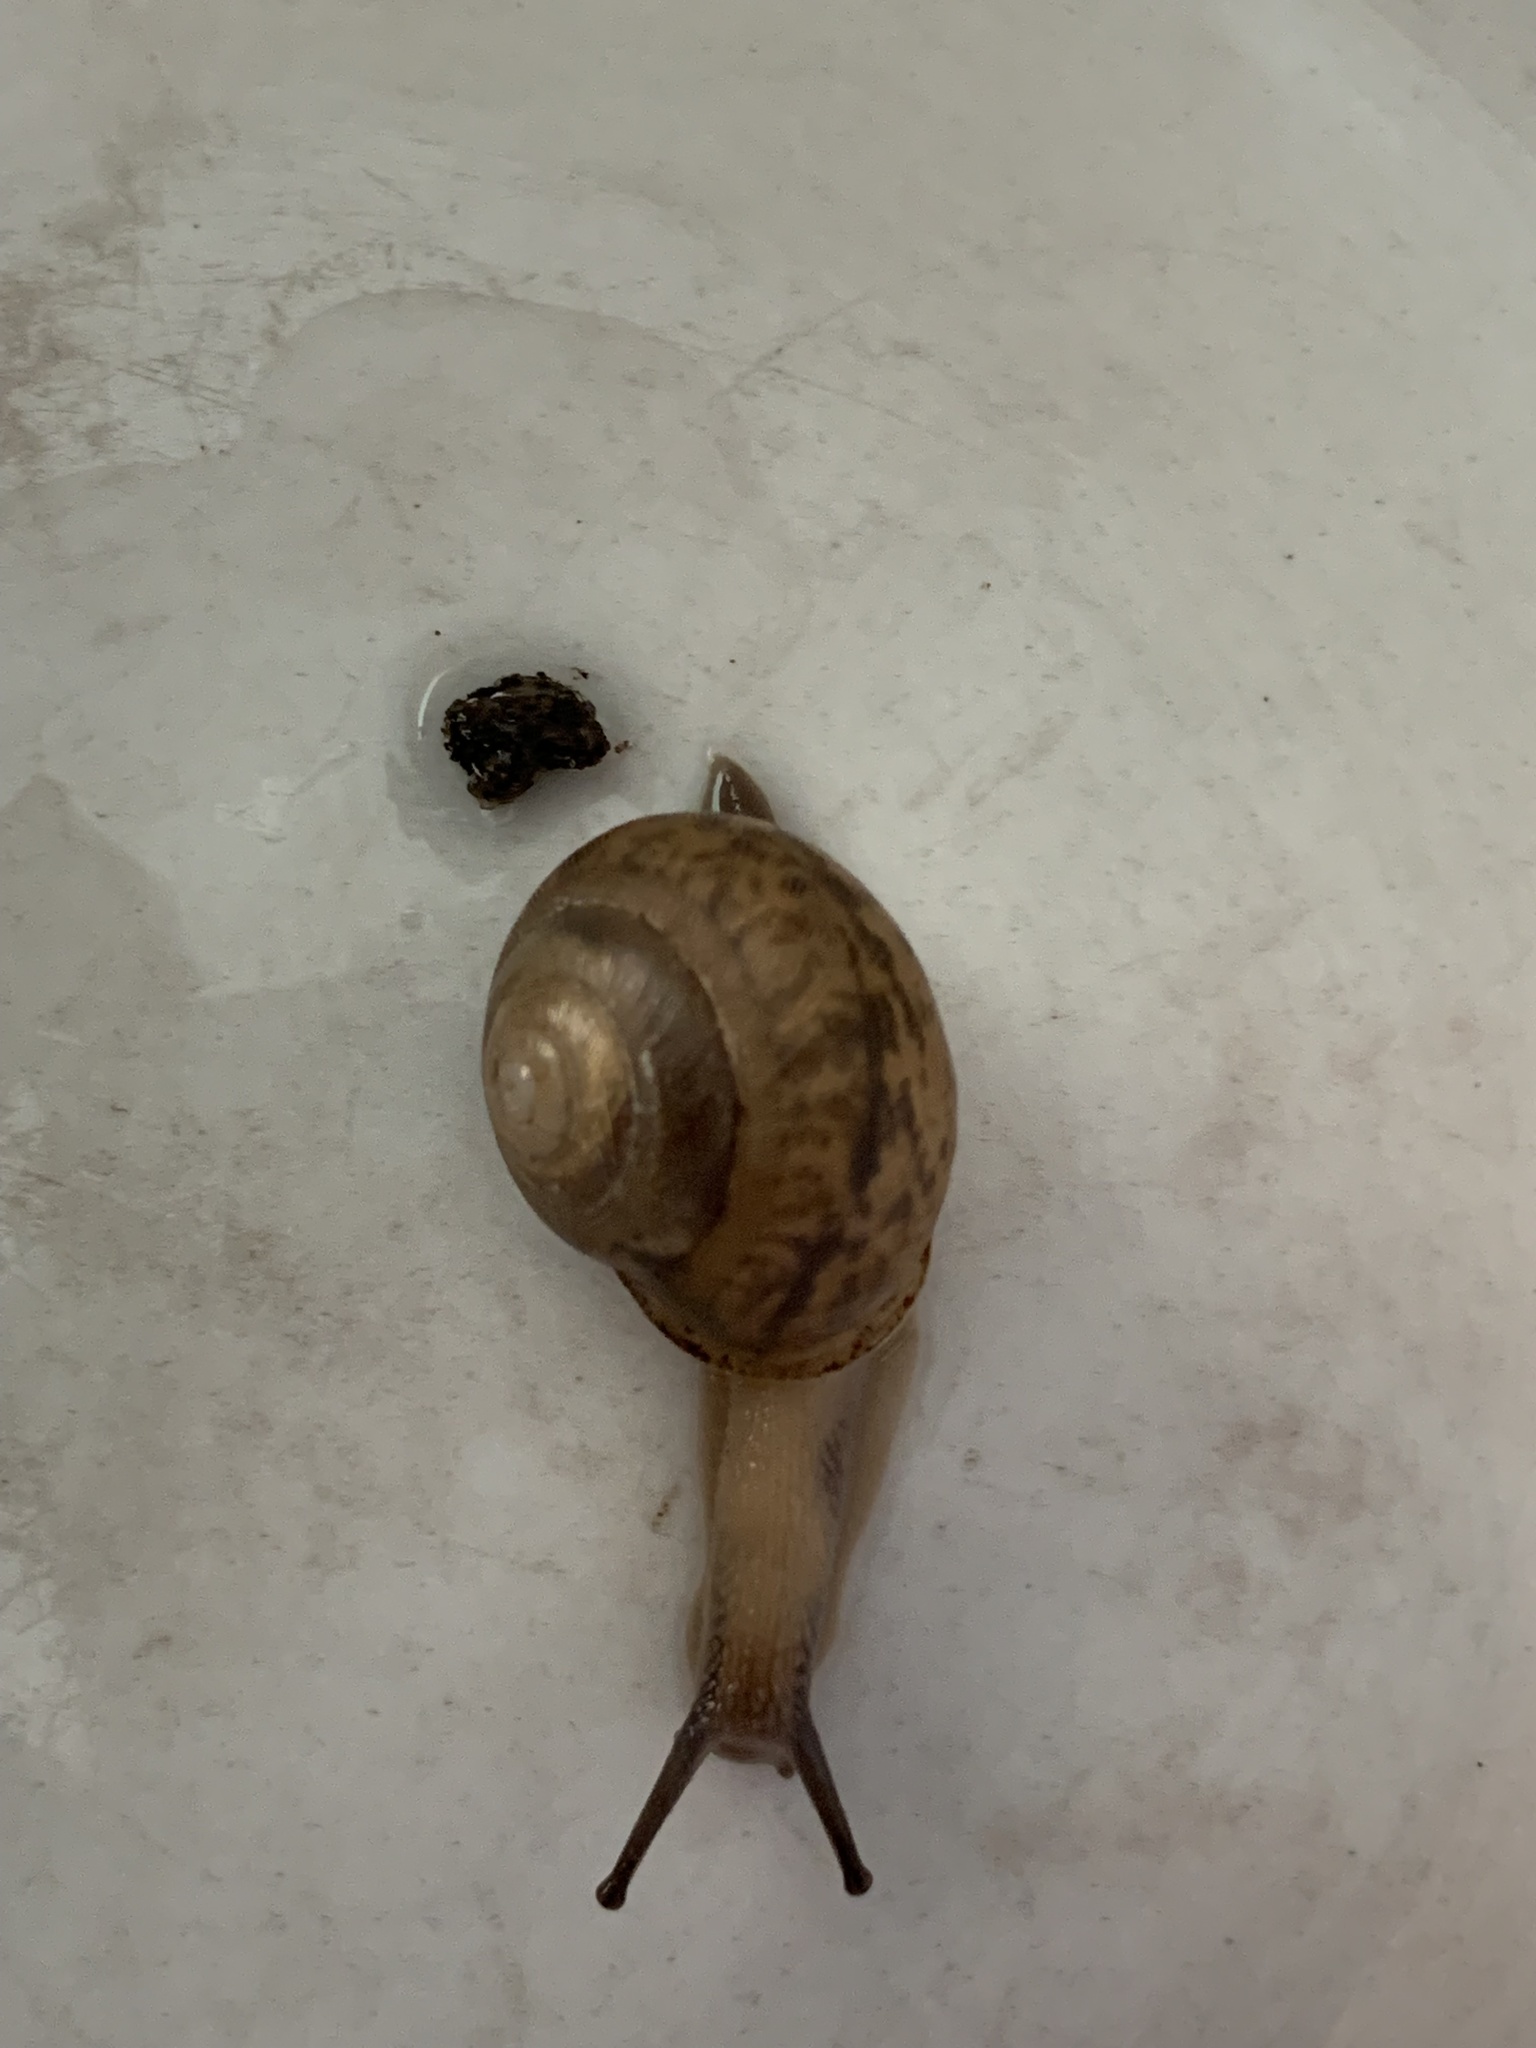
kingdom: Animalia
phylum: Mollusca
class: Gastropoda
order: Stylommatophora
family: Polygyridae
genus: Mesodon
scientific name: Mesodon clausus
